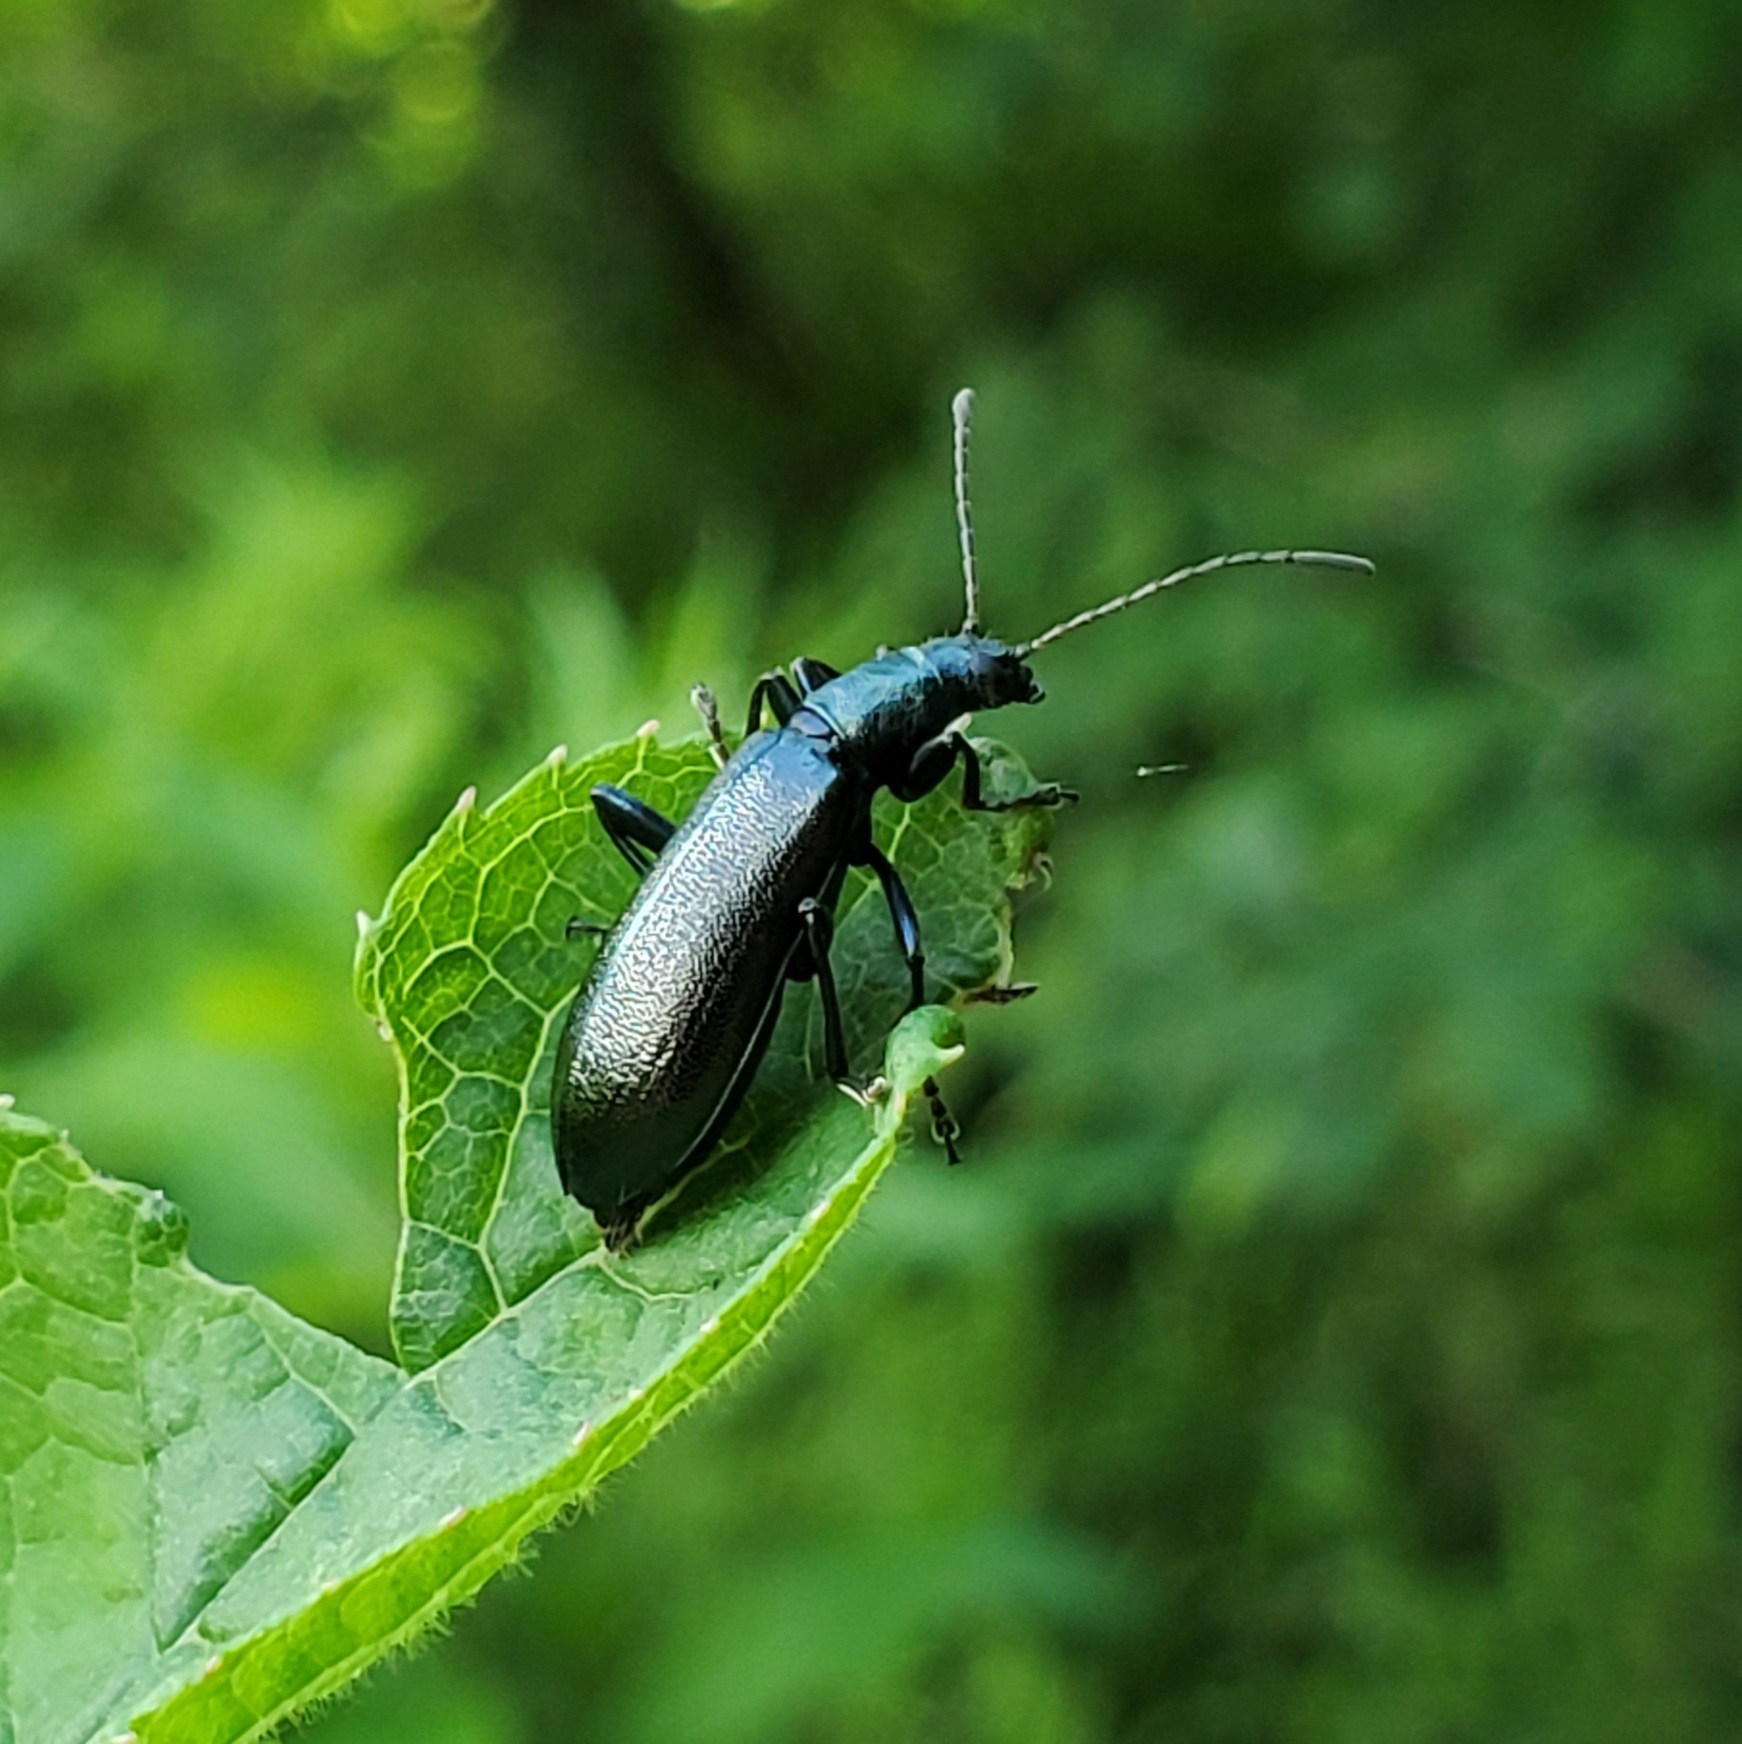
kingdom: Animalia
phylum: Arthropoda
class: Insecta
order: Coleoptera
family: Tenebrionidae
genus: Arthromacra
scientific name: Arthromacra aenea
